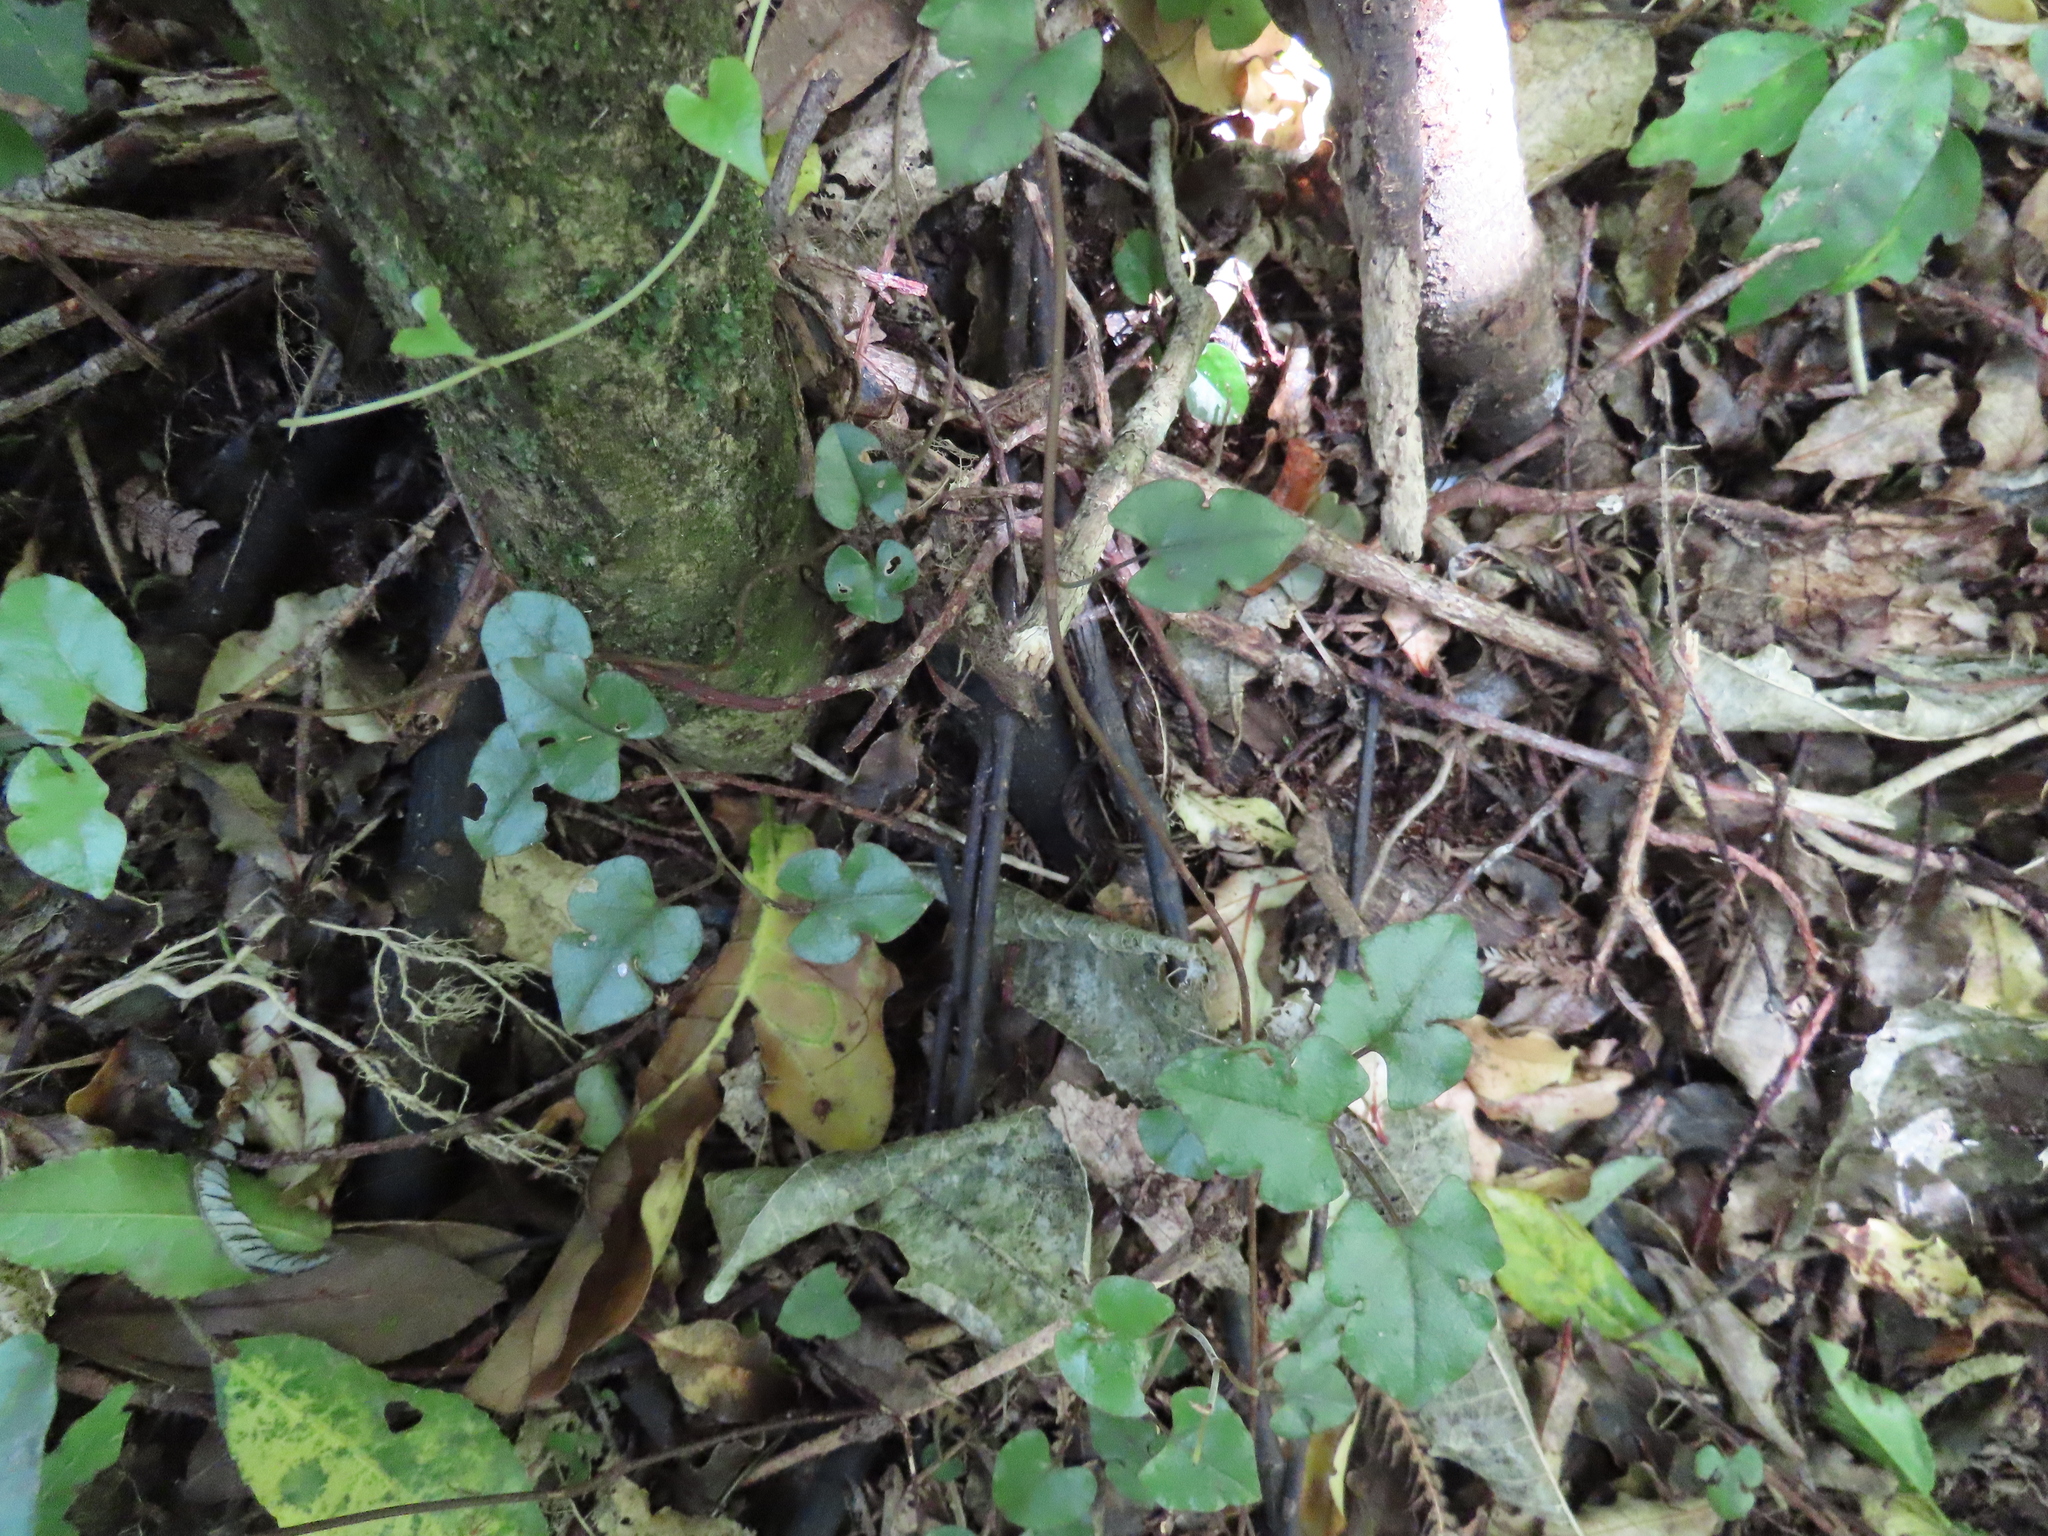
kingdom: Plantae
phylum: Tracheophyta
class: Magnoliopsida
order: Caryophyllales
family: Polygonaceae
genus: Muehlenbeckia
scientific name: Muehlenbeckia australis
